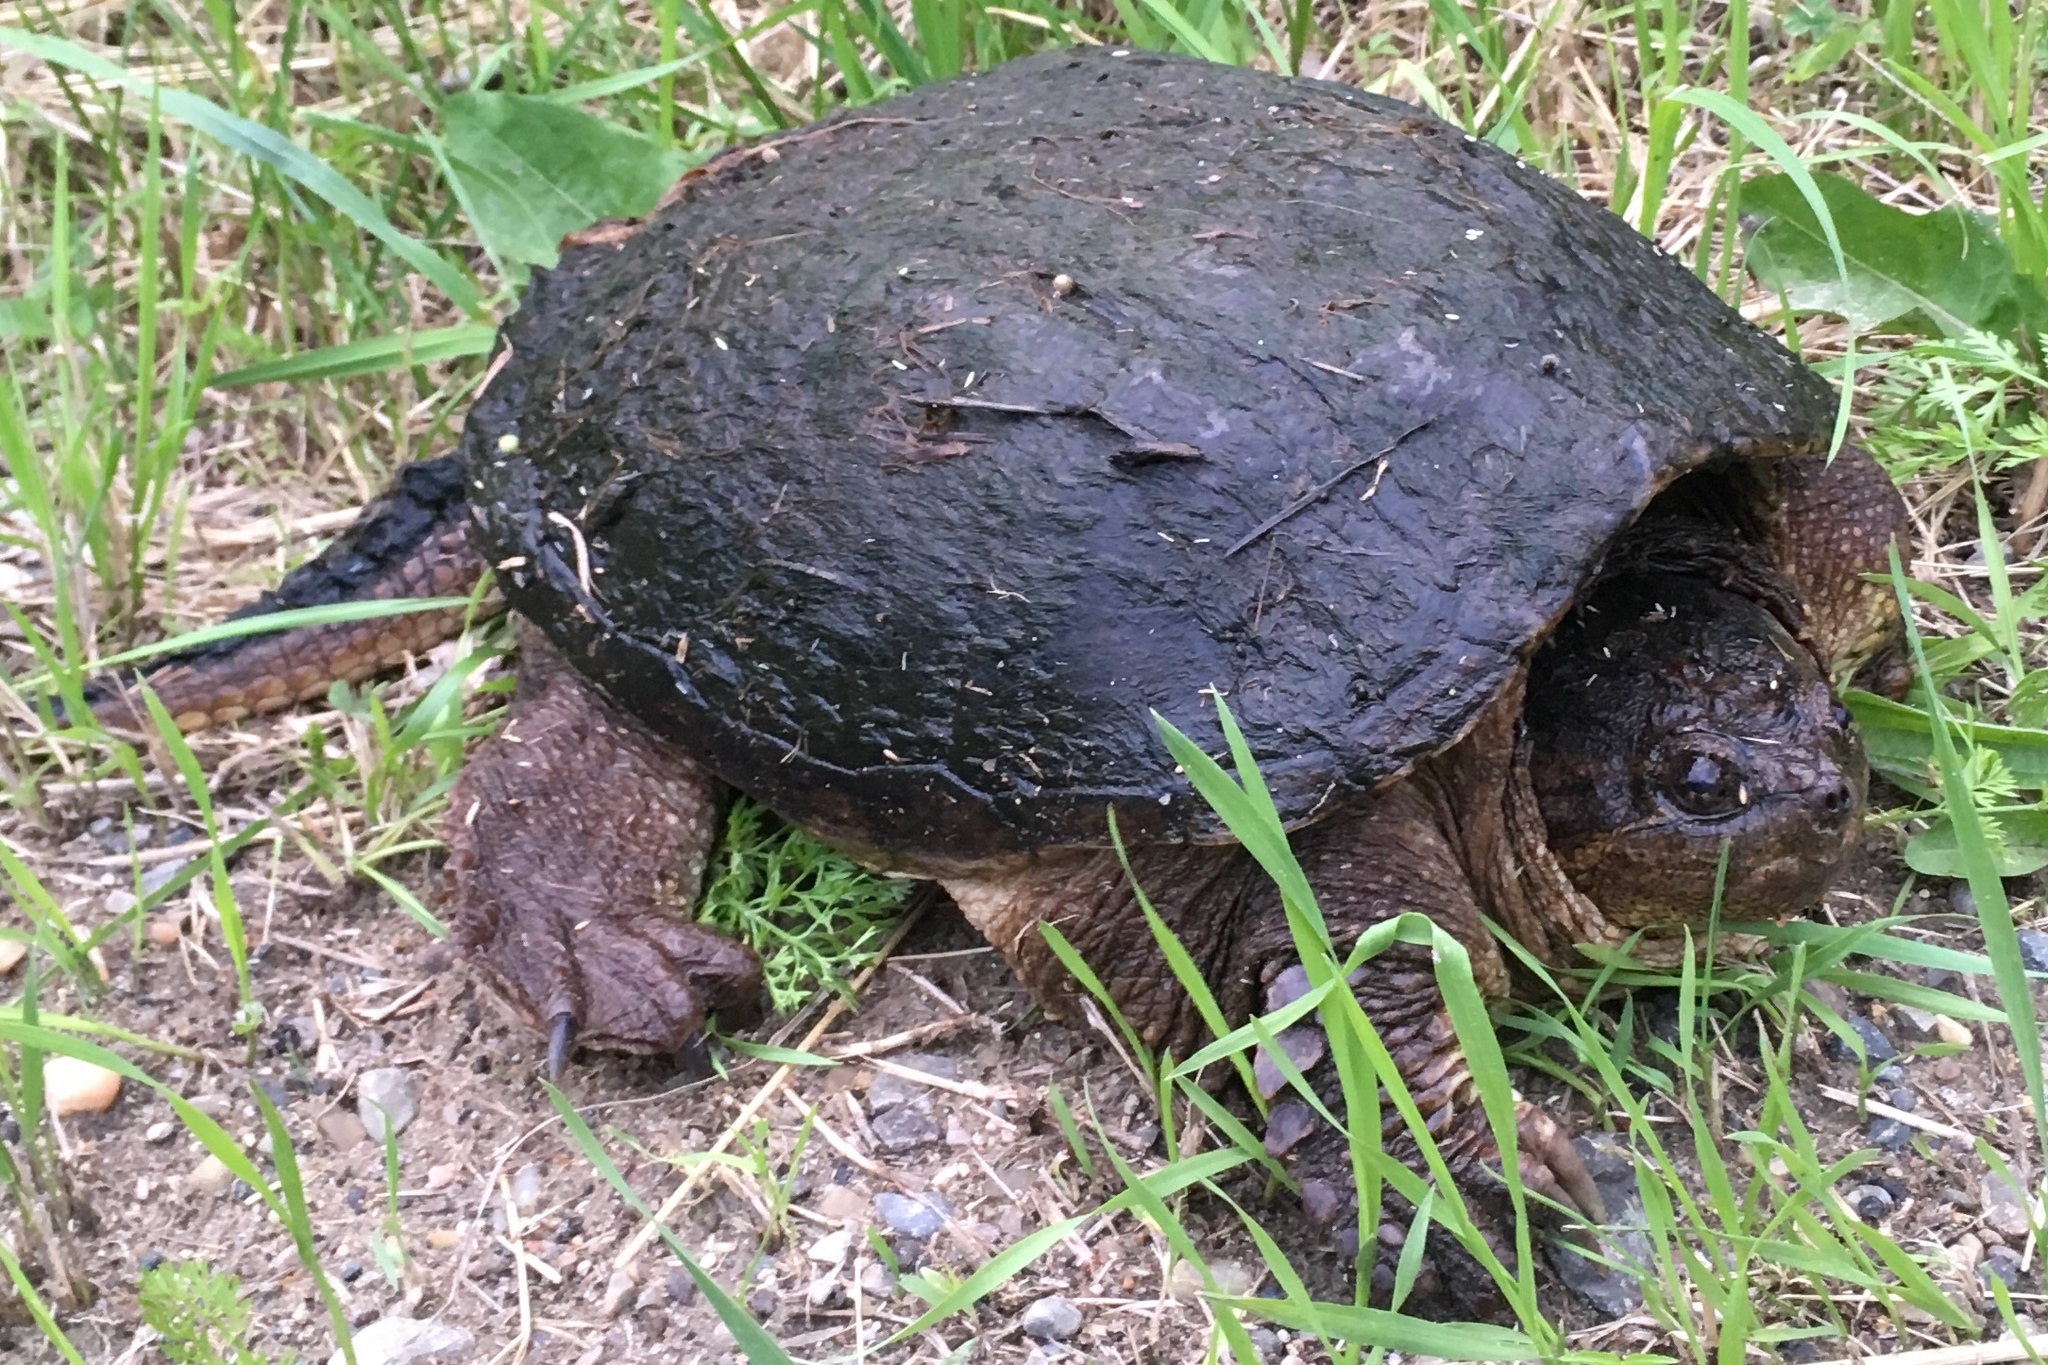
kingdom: Animalia
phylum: Chordata
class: Testudines
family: Chelydridae
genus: Chelydra
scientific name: Chelydra serpentina
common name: Common snapping turtle
